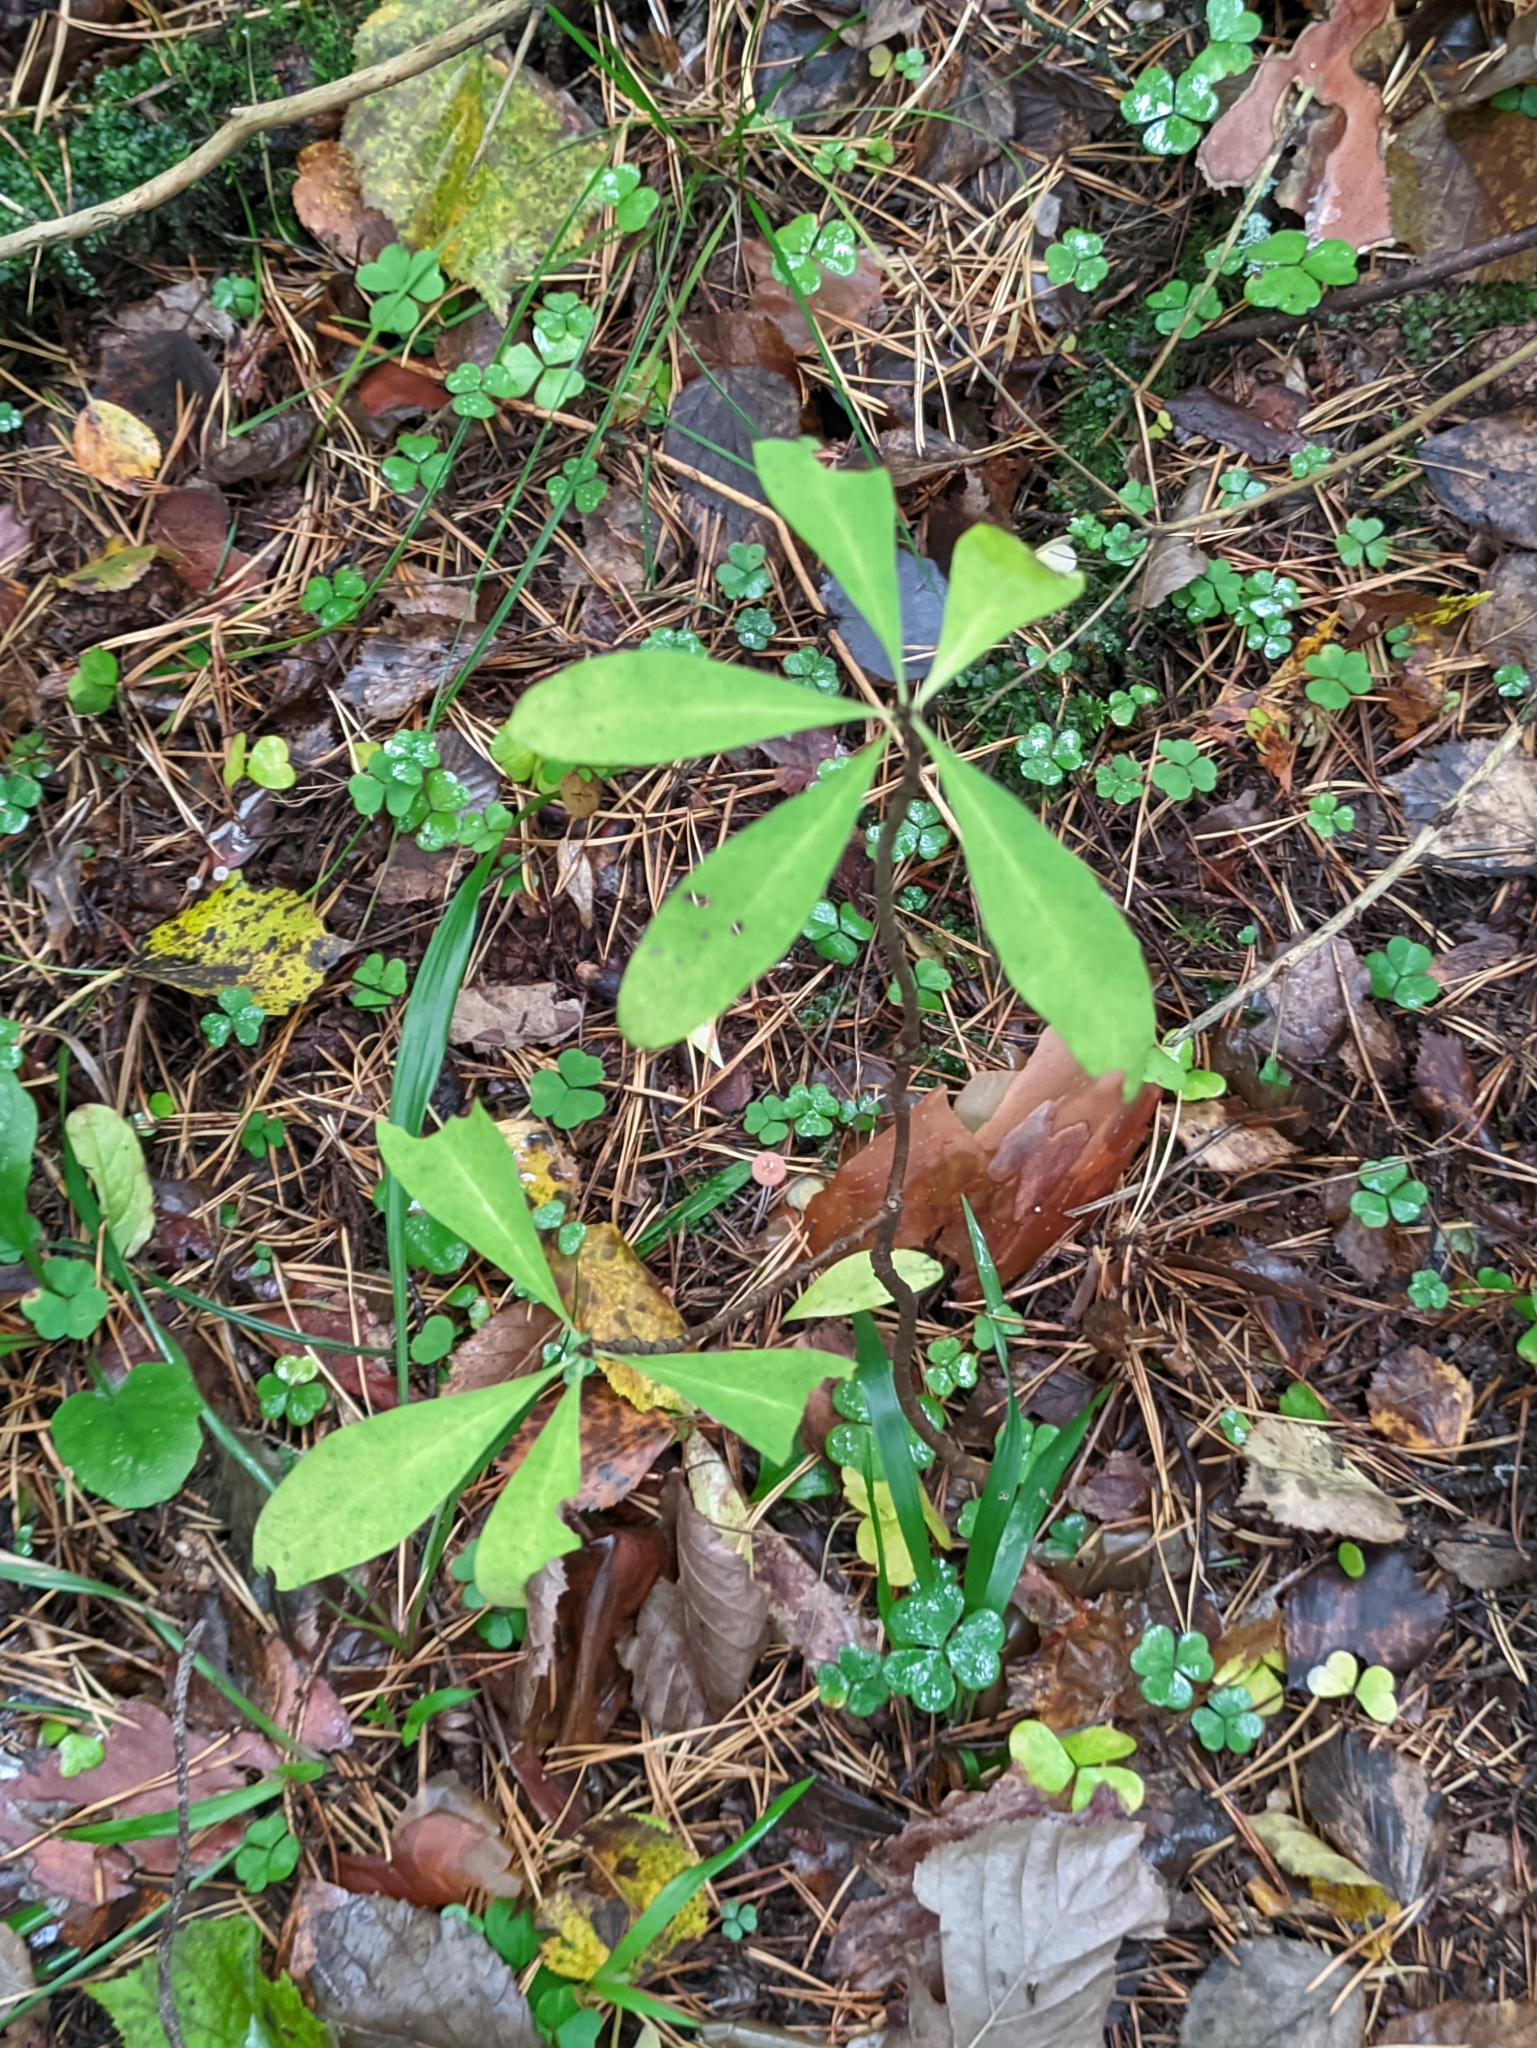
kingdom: Plantae
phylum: Tracheophyta
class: Magnoliopsida
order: Malvales
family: Thymelaeaceae
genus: Daphne
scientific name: Daphne mezereum
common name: Mezereon
